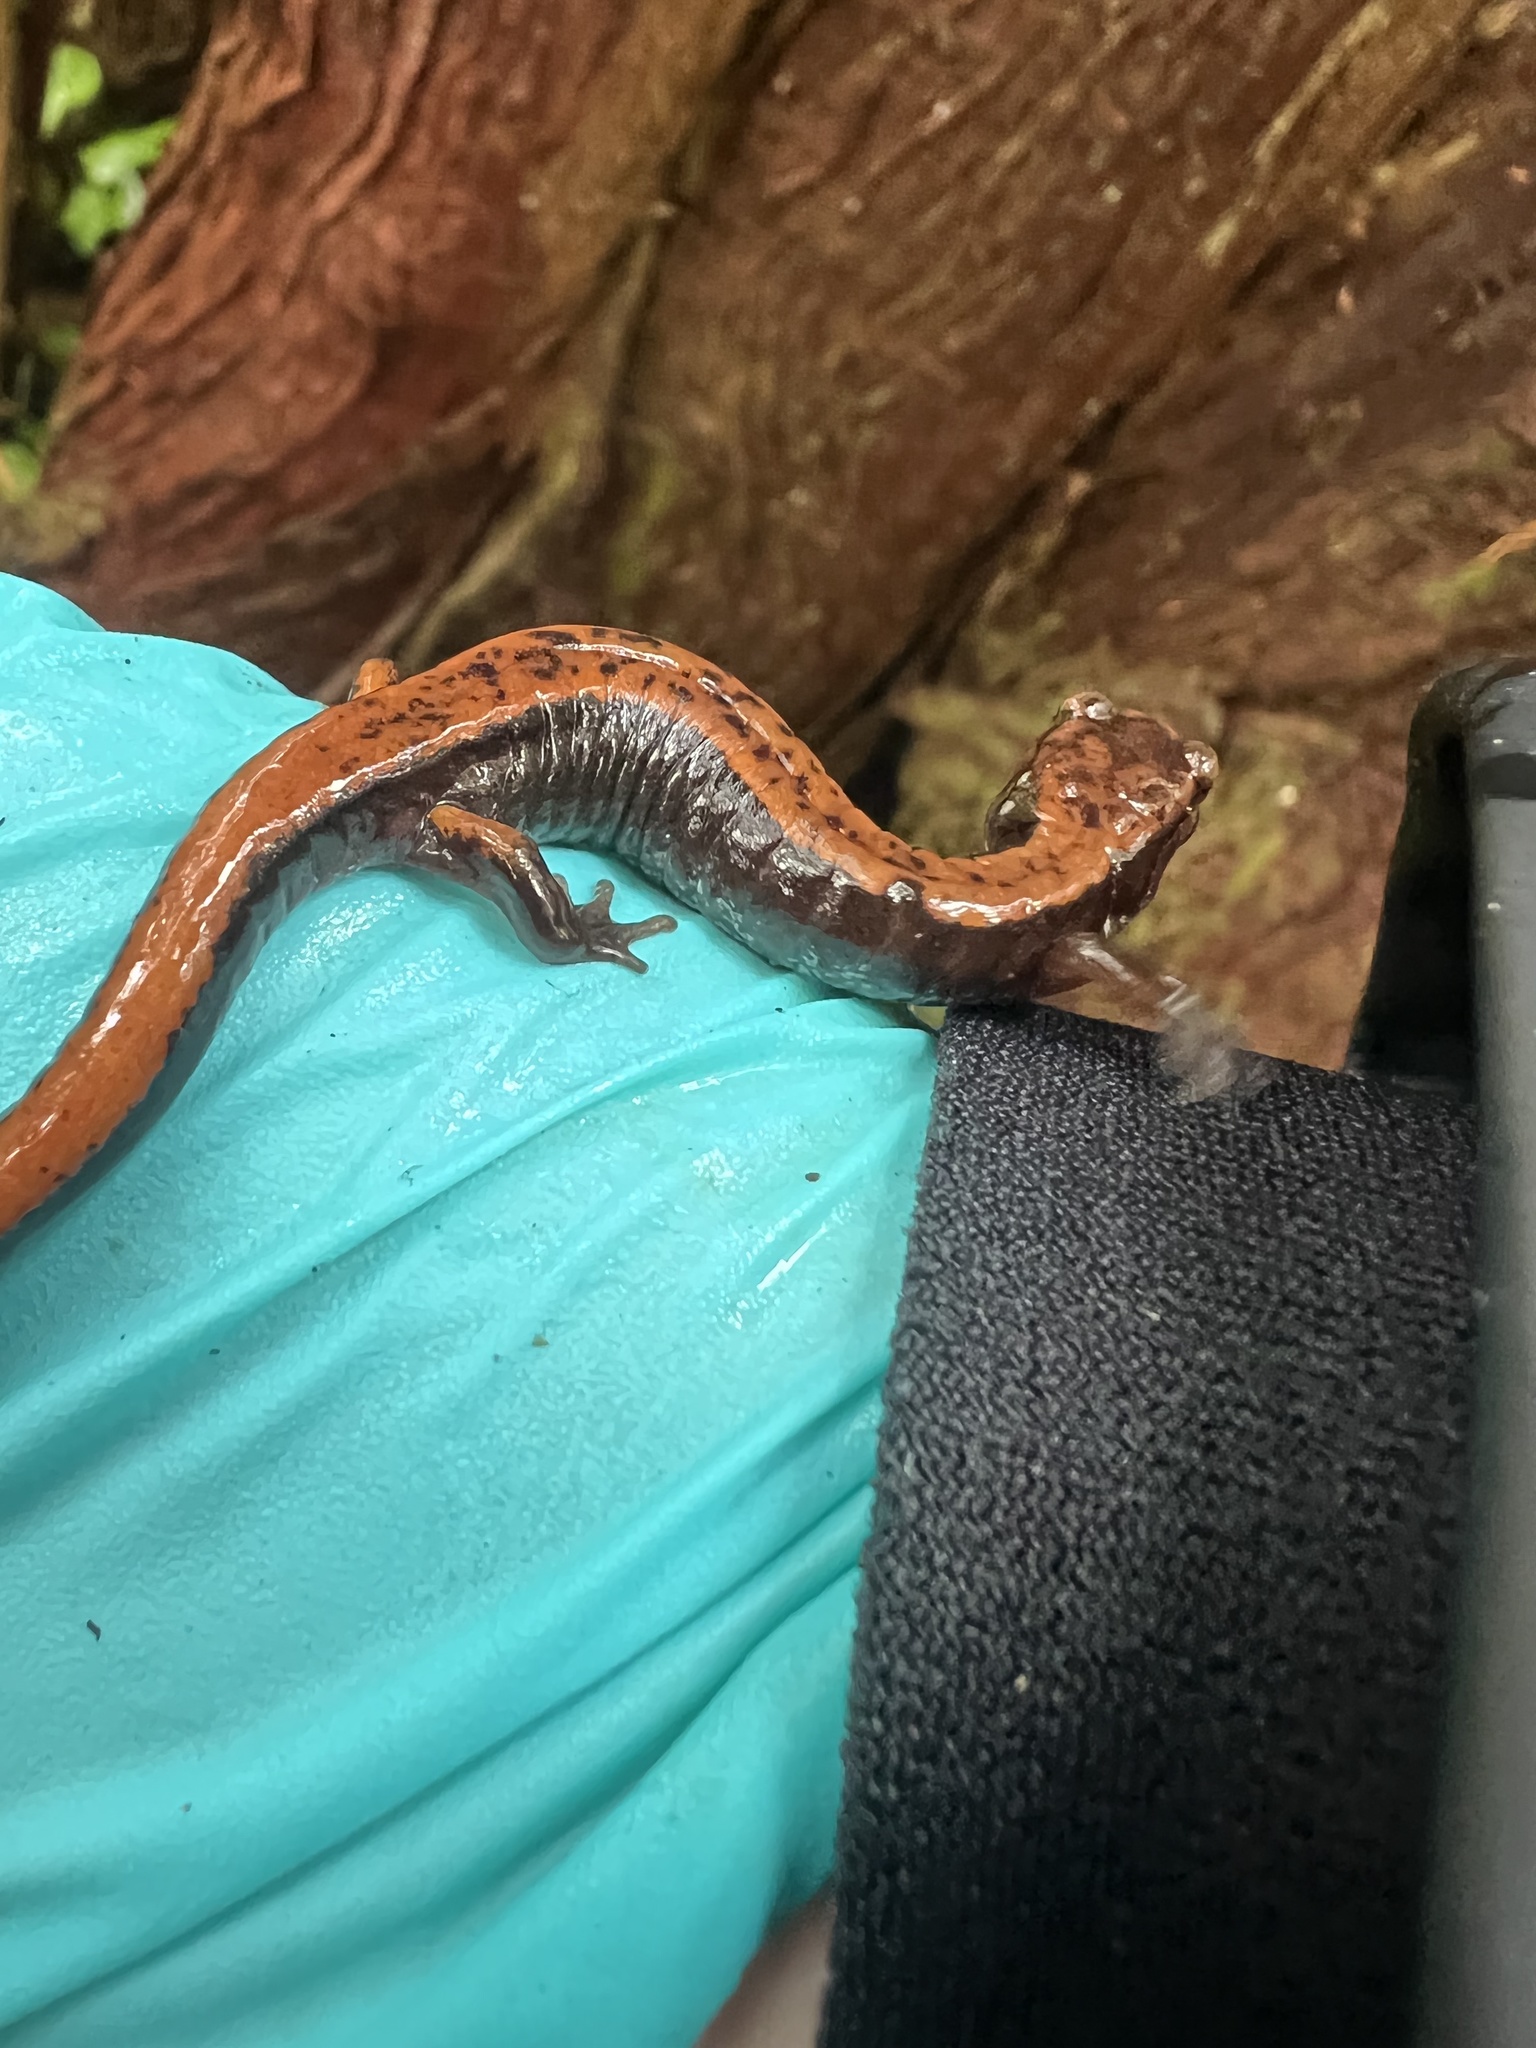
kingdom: Animalia
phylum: Chordata
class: Amphibia
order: Caudata
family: Plethodontidae
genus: Plethodon
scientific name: Plethodon vehiculum
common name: Western red-backed salamander
